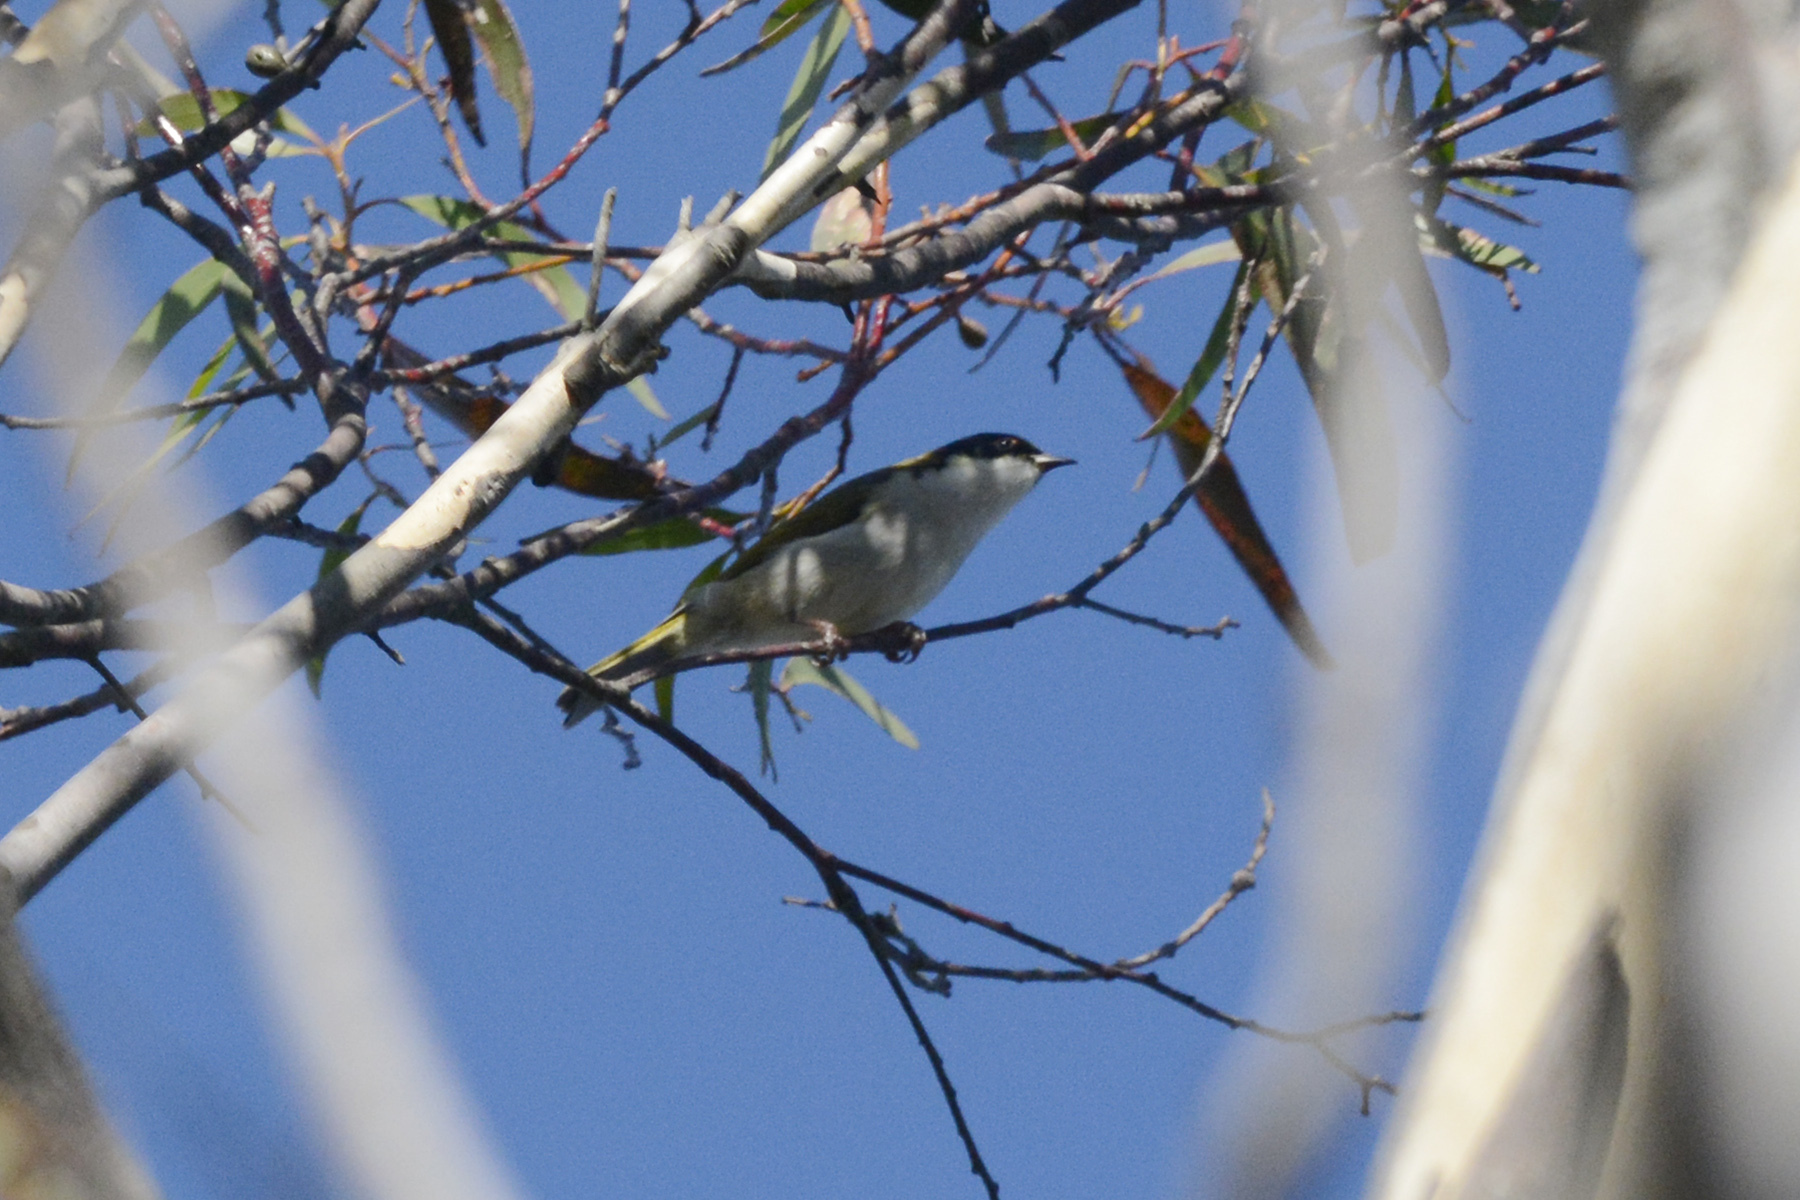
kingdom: Animalia
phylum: Chordata
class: Aves
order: Passeriformes
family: Meliphagidae
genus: Melithreptus
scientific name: Melithreptus lunatus
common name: White-naped honeyeater
